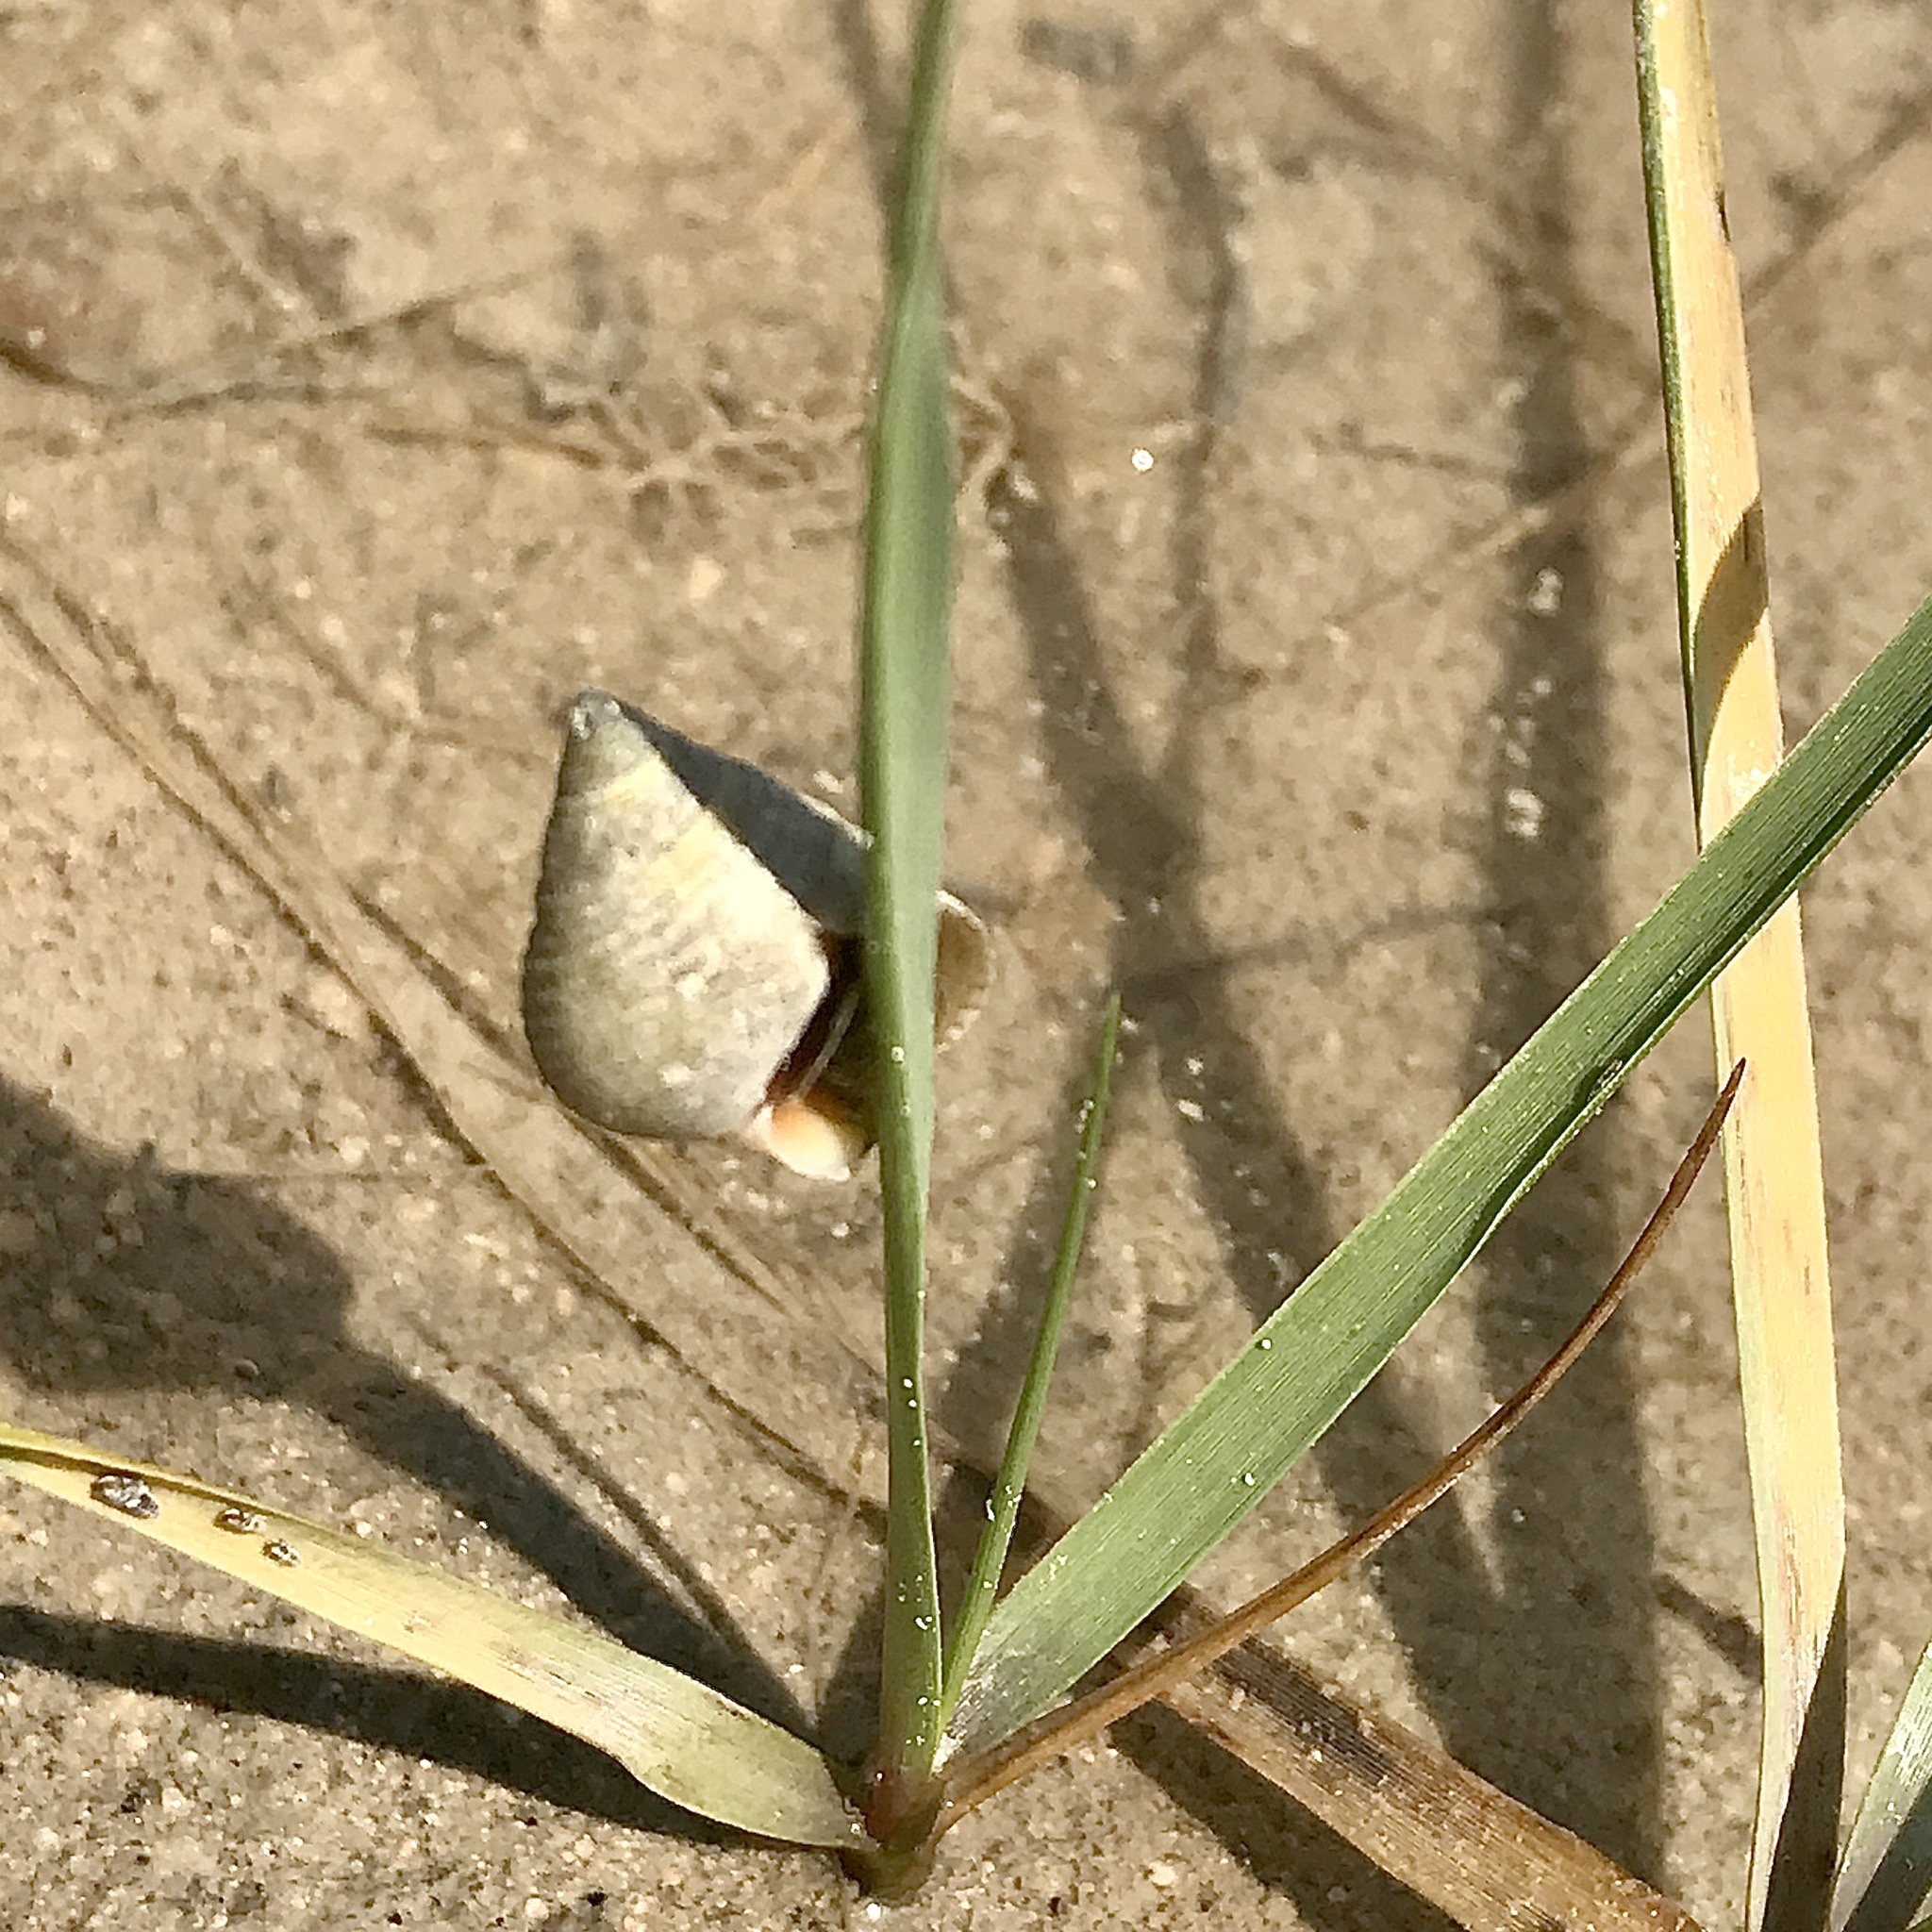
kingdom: Animalia
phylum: Mollusca
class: Gastropoda
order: Littorinimorpha
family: Littorinidae
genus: Littoraria
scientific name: Littoraria irrorata
